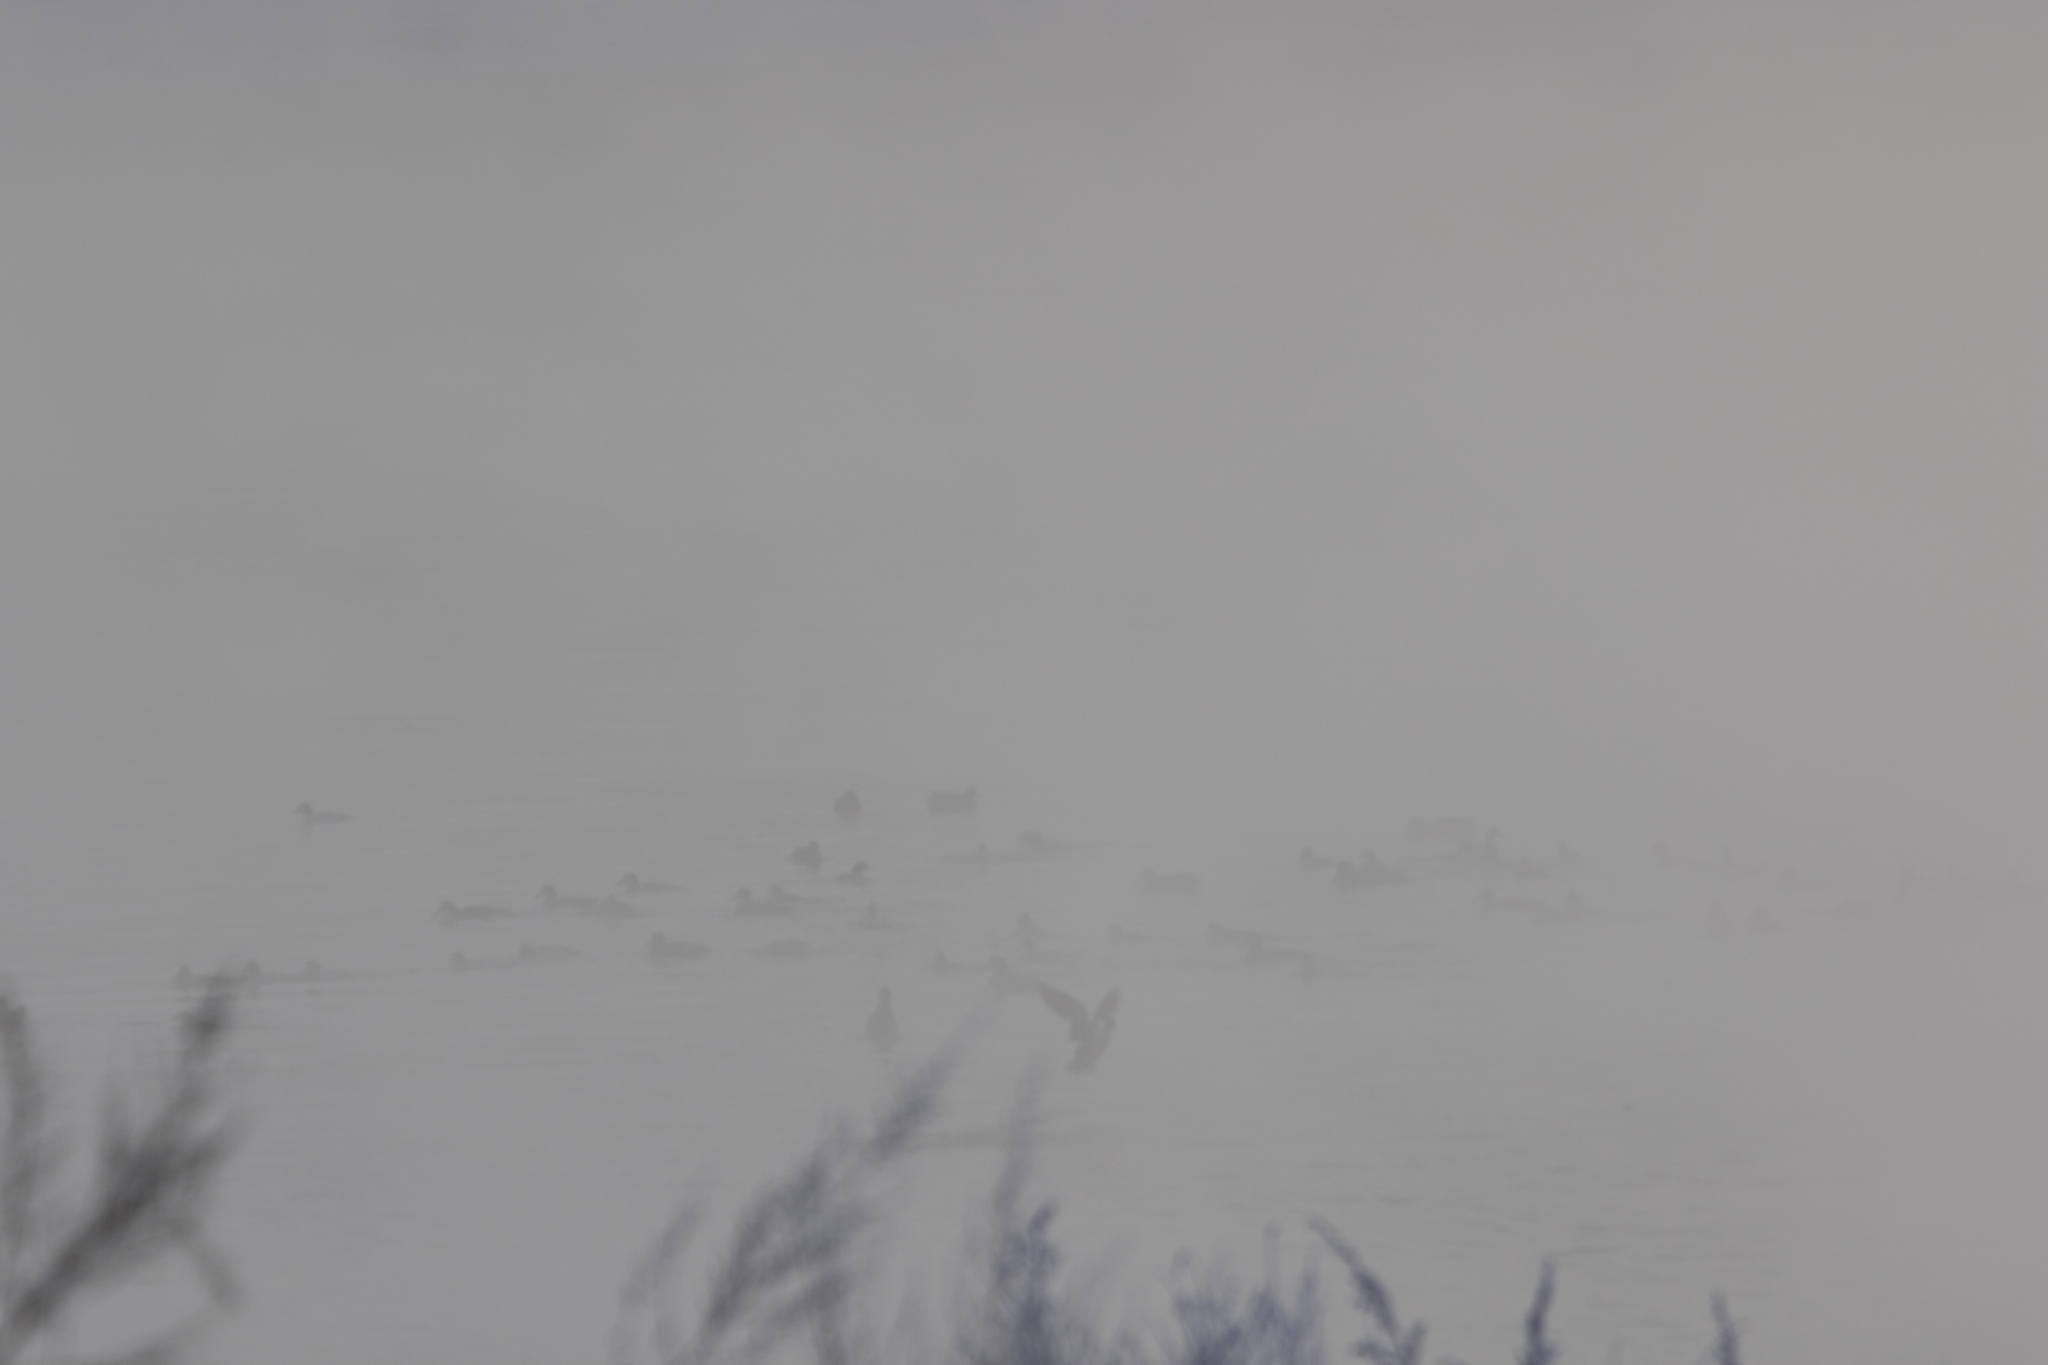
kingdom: Animalia
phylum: Chordata
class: Aves
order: Anseriformes
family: Anatidae
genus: Anas
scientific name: Anas platyrhynchos
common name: Mallard
